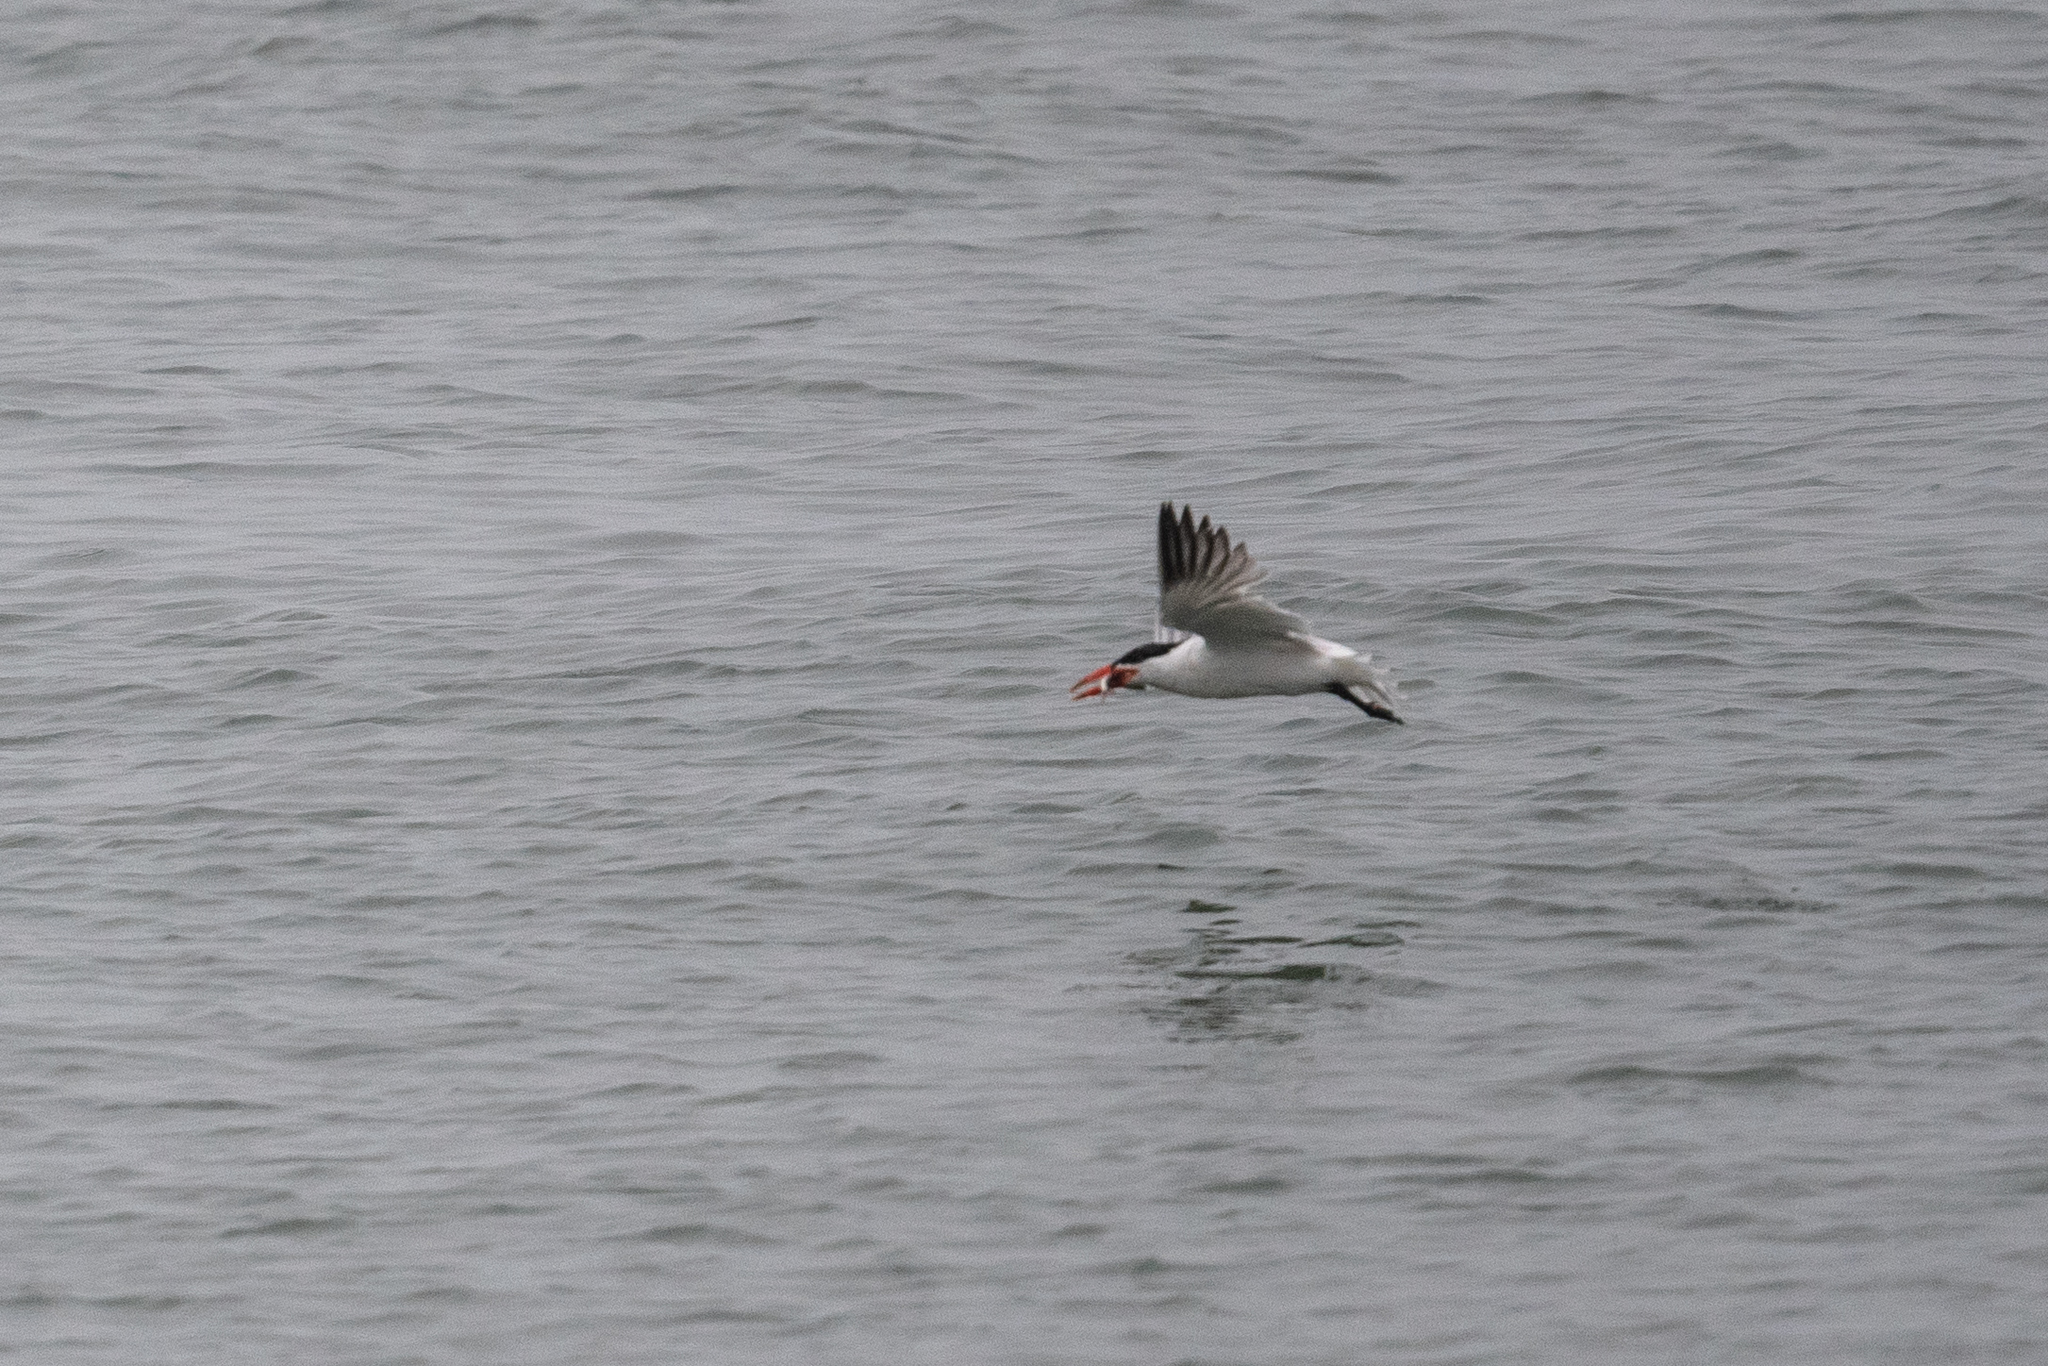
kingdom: Animalia
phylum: Chordata
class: Aves
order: Charadriiformes
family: Laridae
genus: Hydroprogne
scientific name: Hydroprogne caspia
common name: Caspian tern
